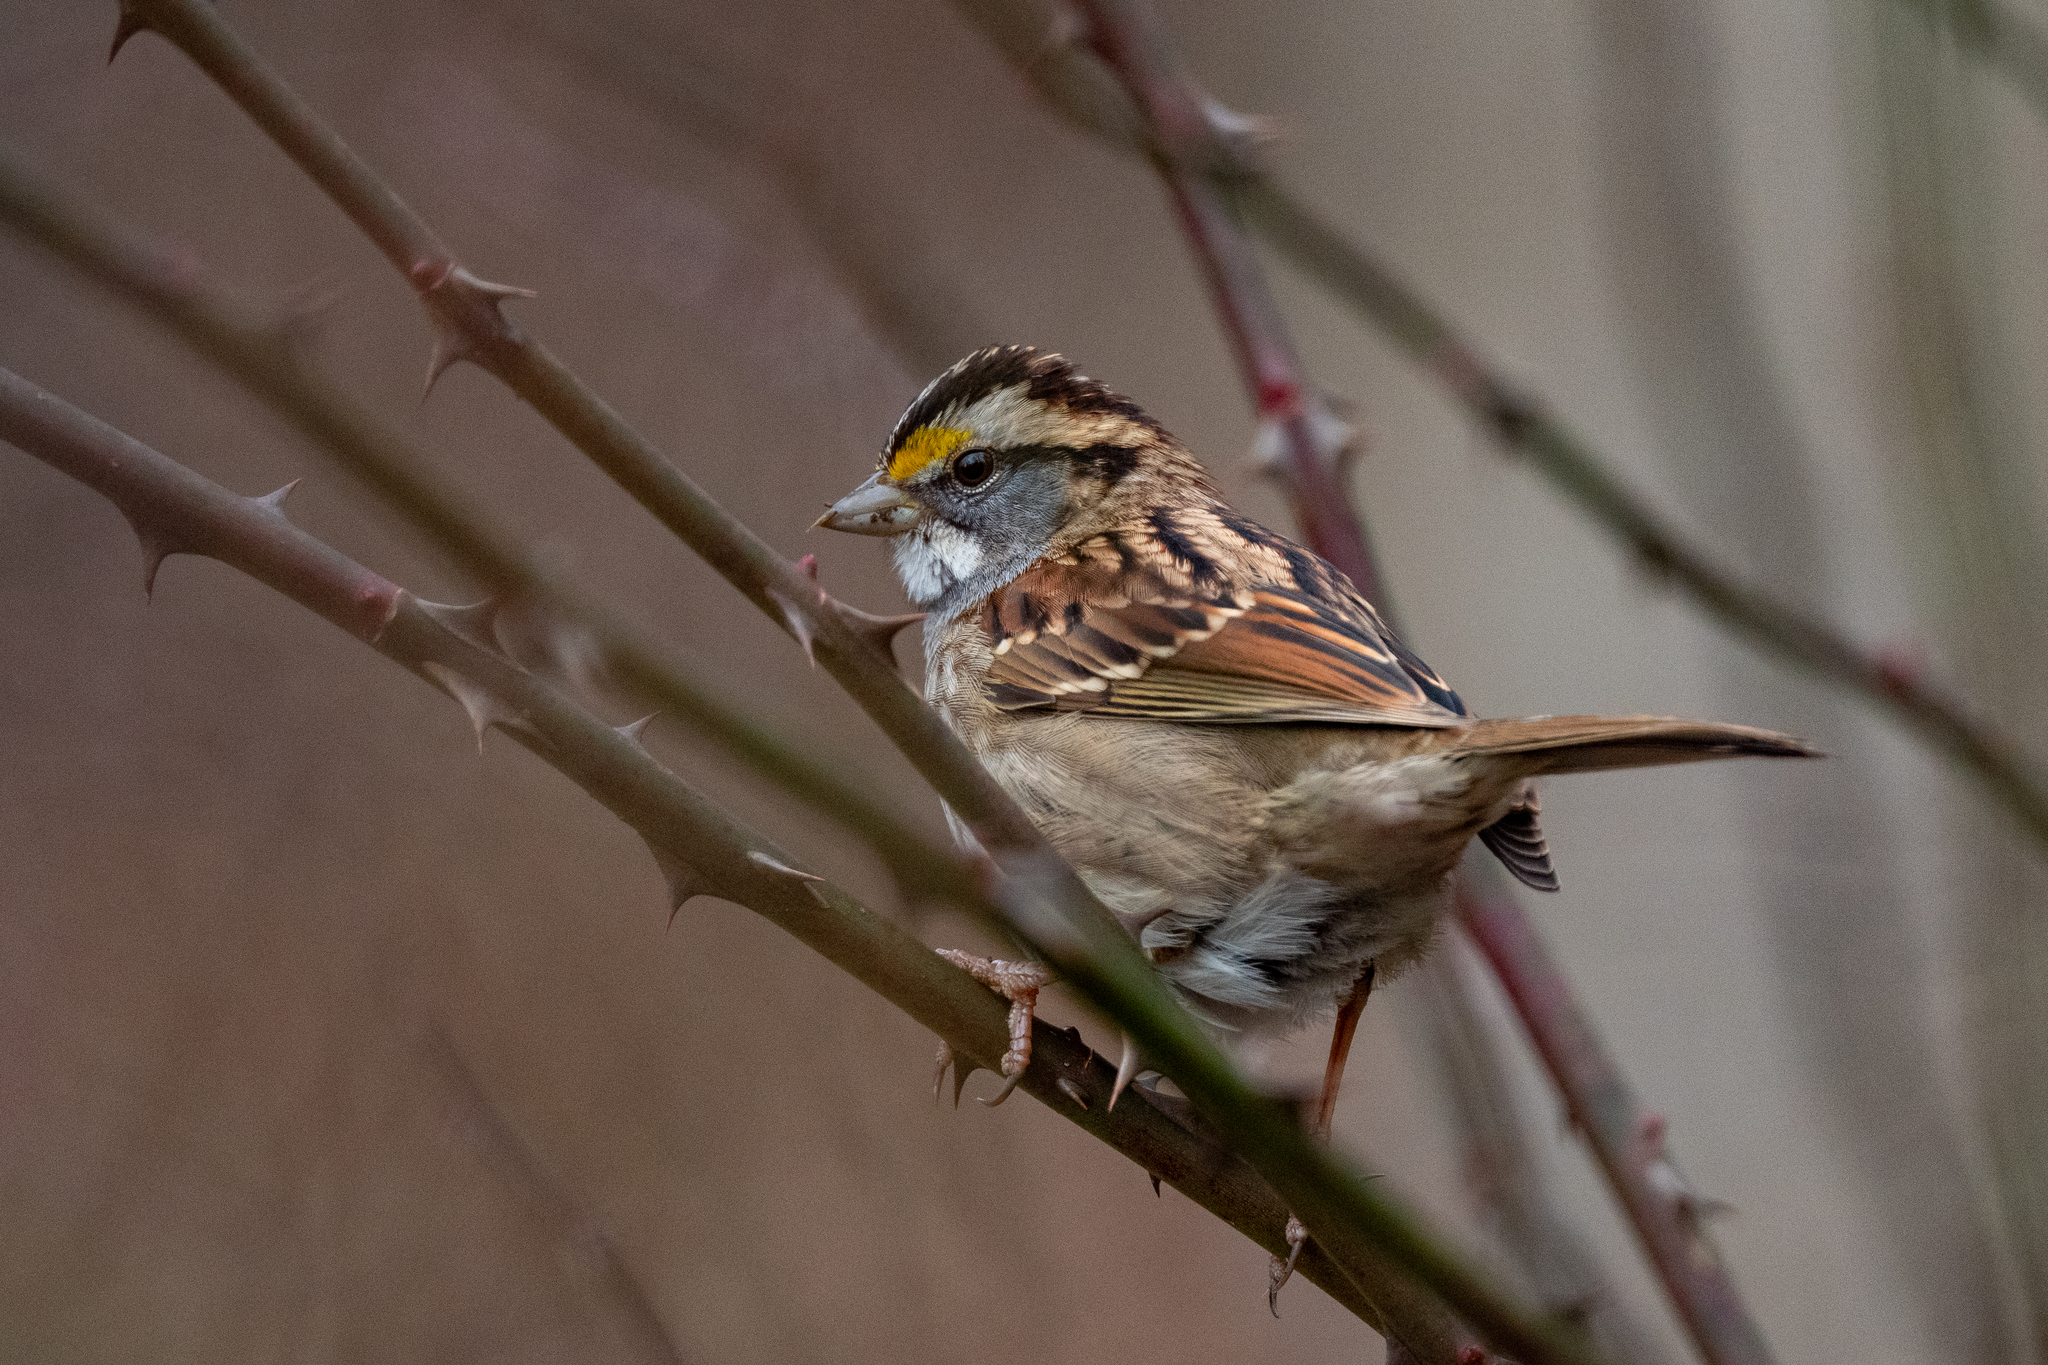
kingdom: Animalia
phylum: Chordata
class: Aves
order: Passeriformes
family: Passerellidae
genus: Zonotrichia
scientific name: Zonotrichia albicollis
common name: White-throated sparrow
